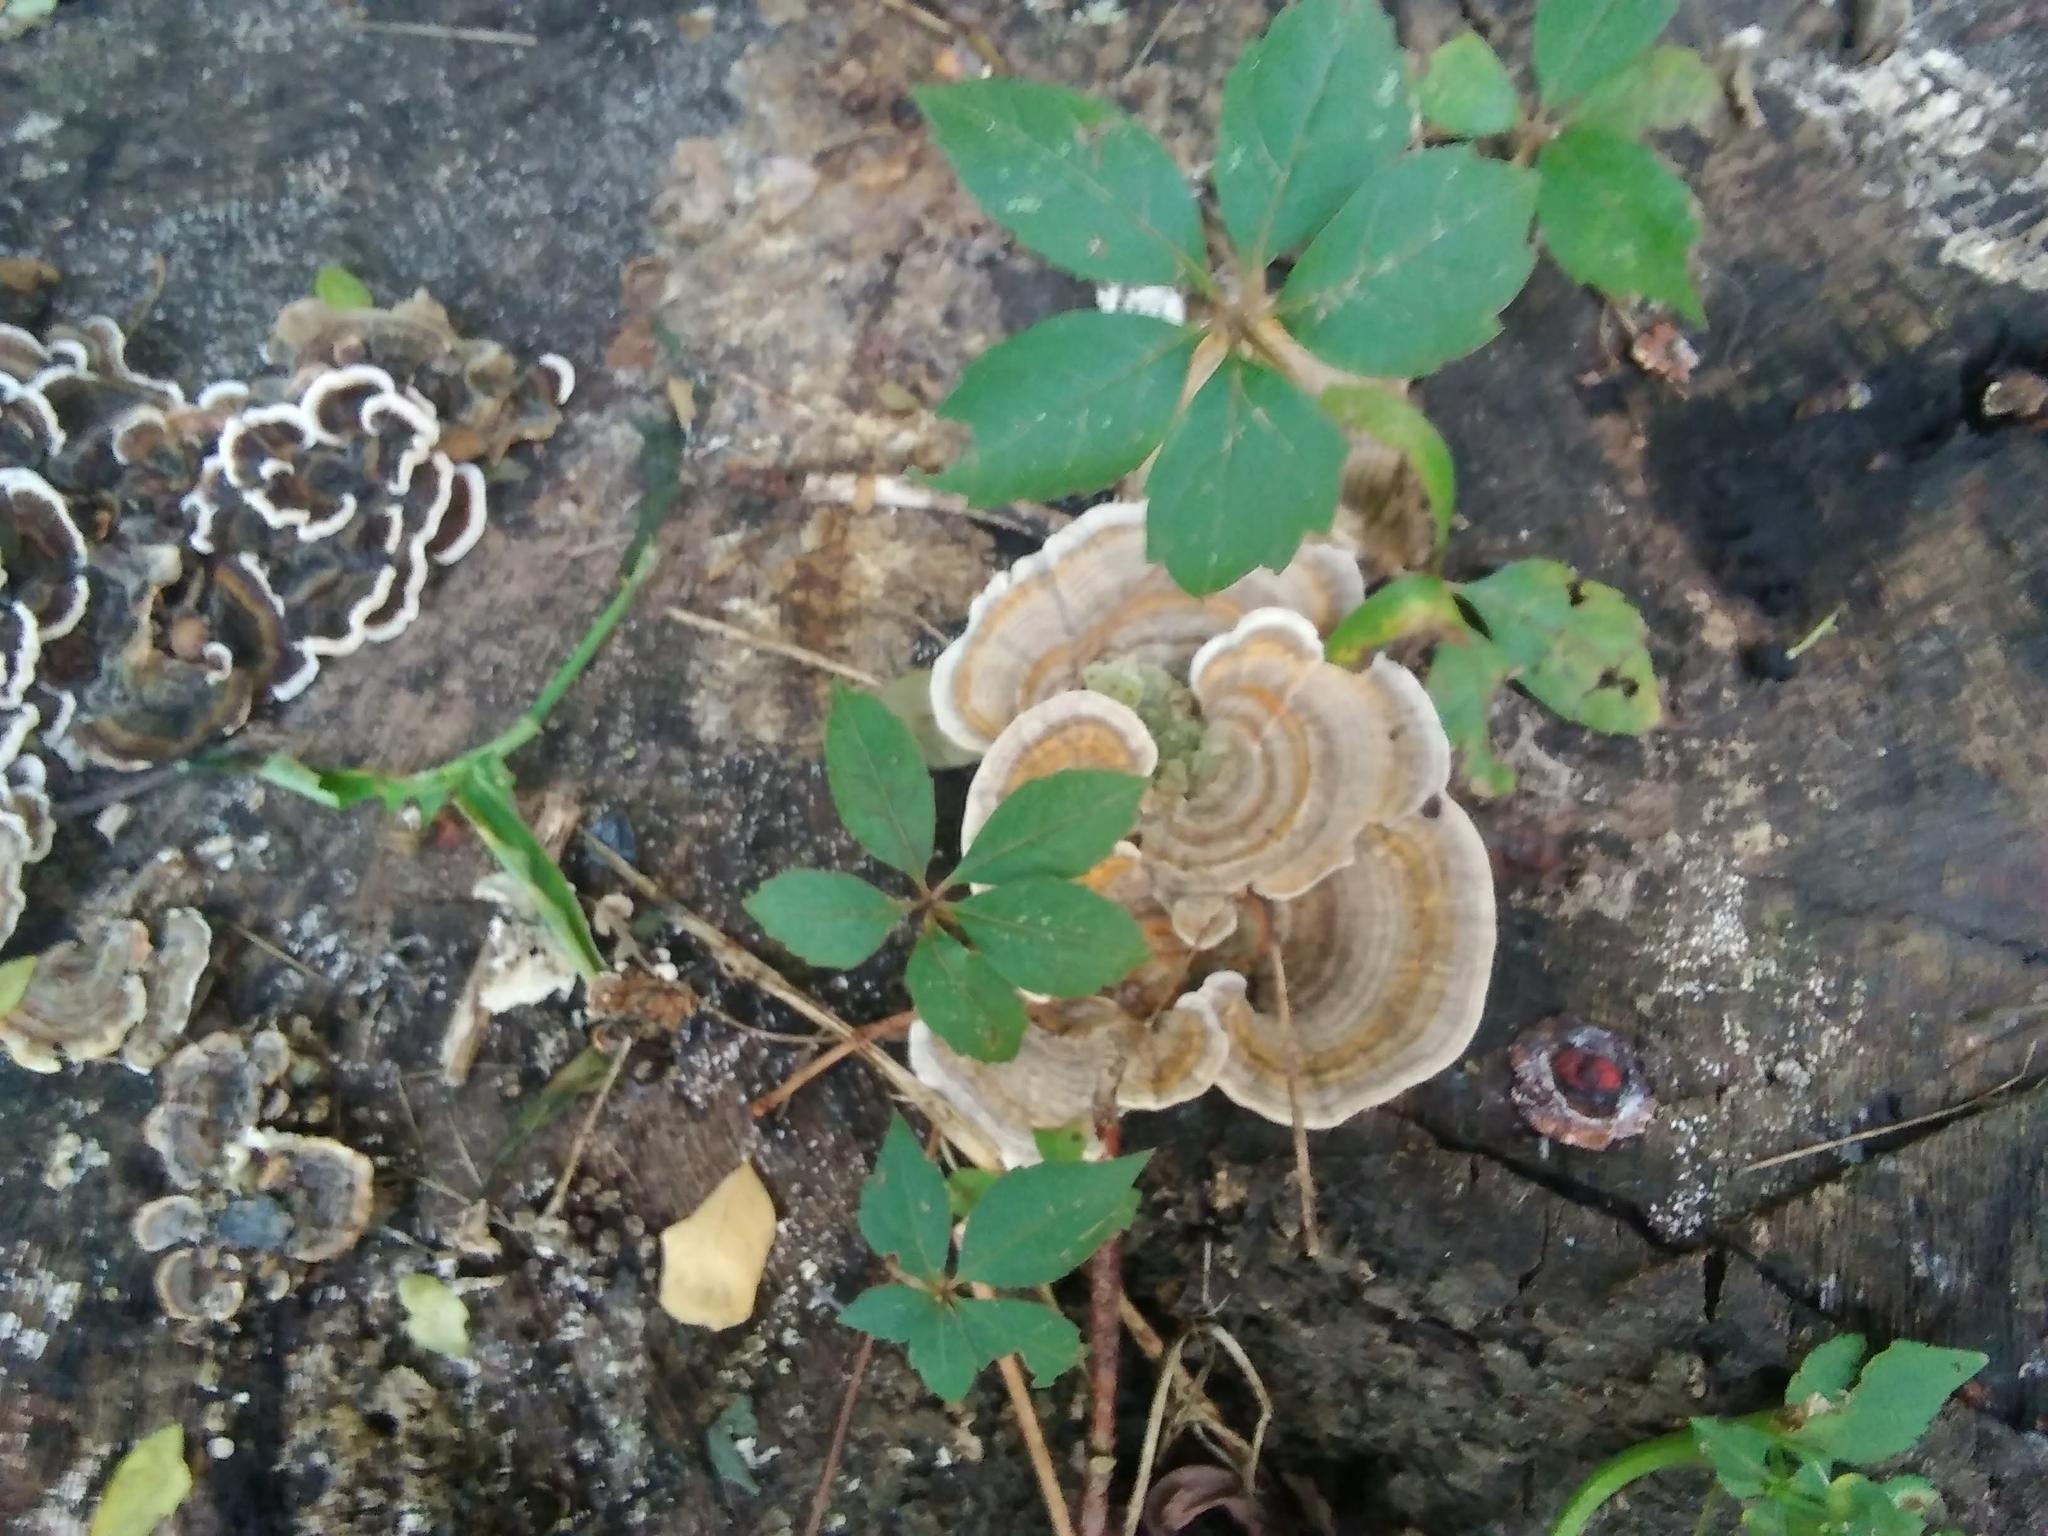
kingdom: Fungi
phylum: Basidiomycota
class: Agaricomycetes
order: Polyporales
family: Polyporaceae
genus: Trametes
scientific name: Trametes versicolor
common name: Turkeytail
